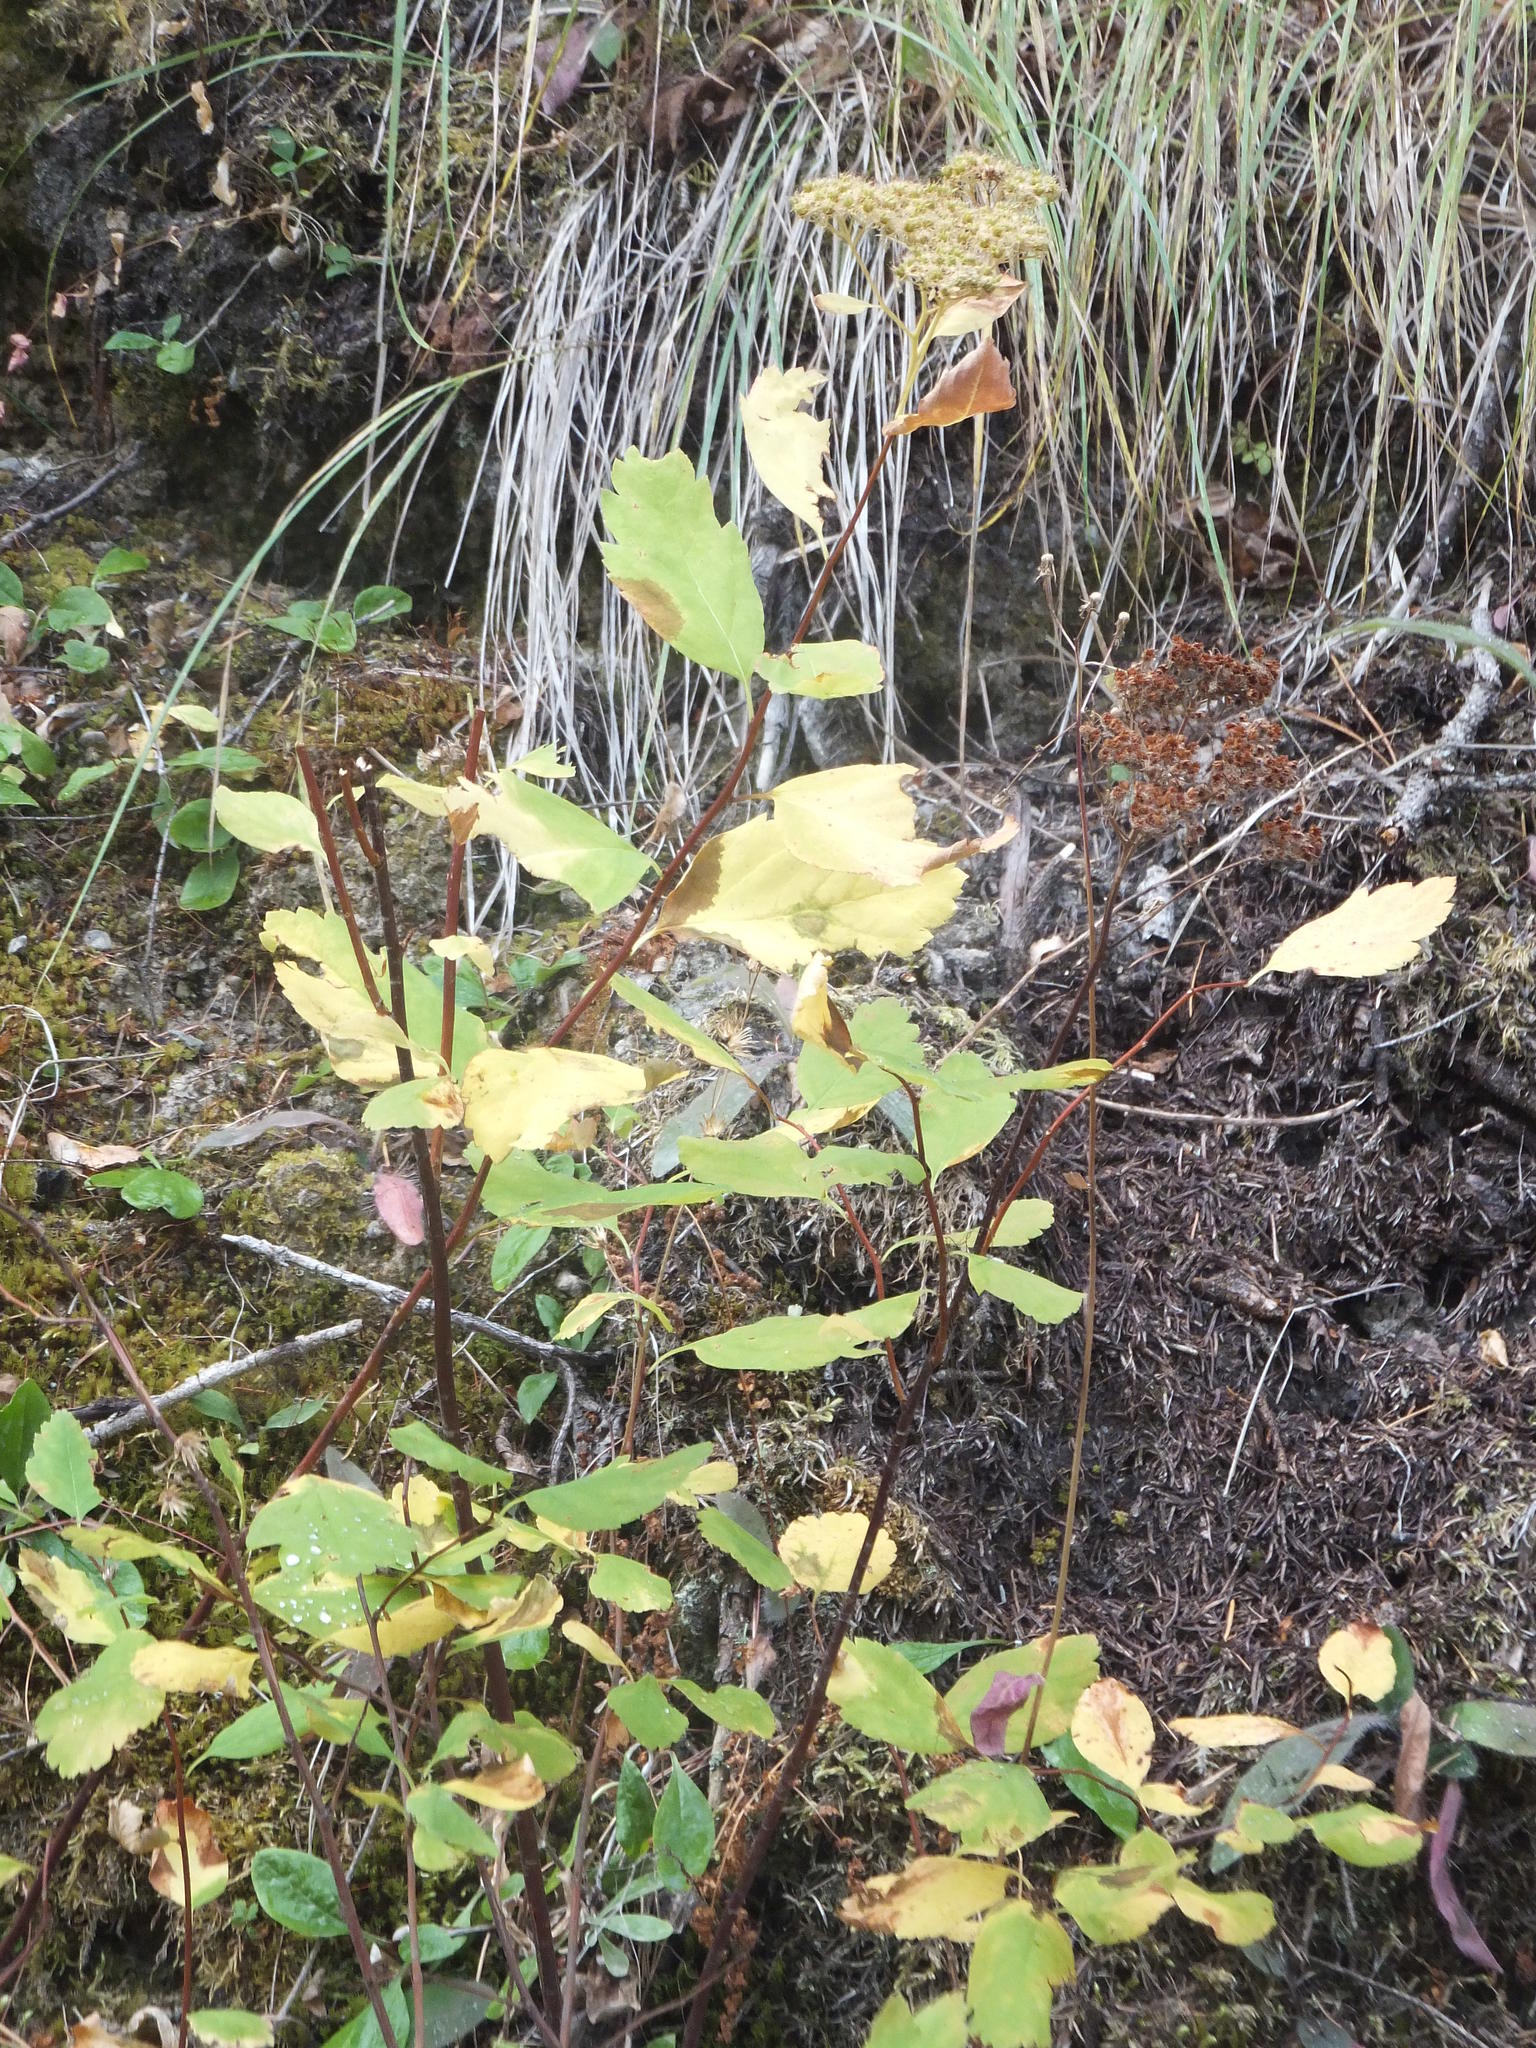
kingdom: Plantae
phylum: Tracheophyta
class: Magnoliopsida
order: Rosales
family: Rosaceae
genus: Spiraea
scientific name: Spiraea lucida
